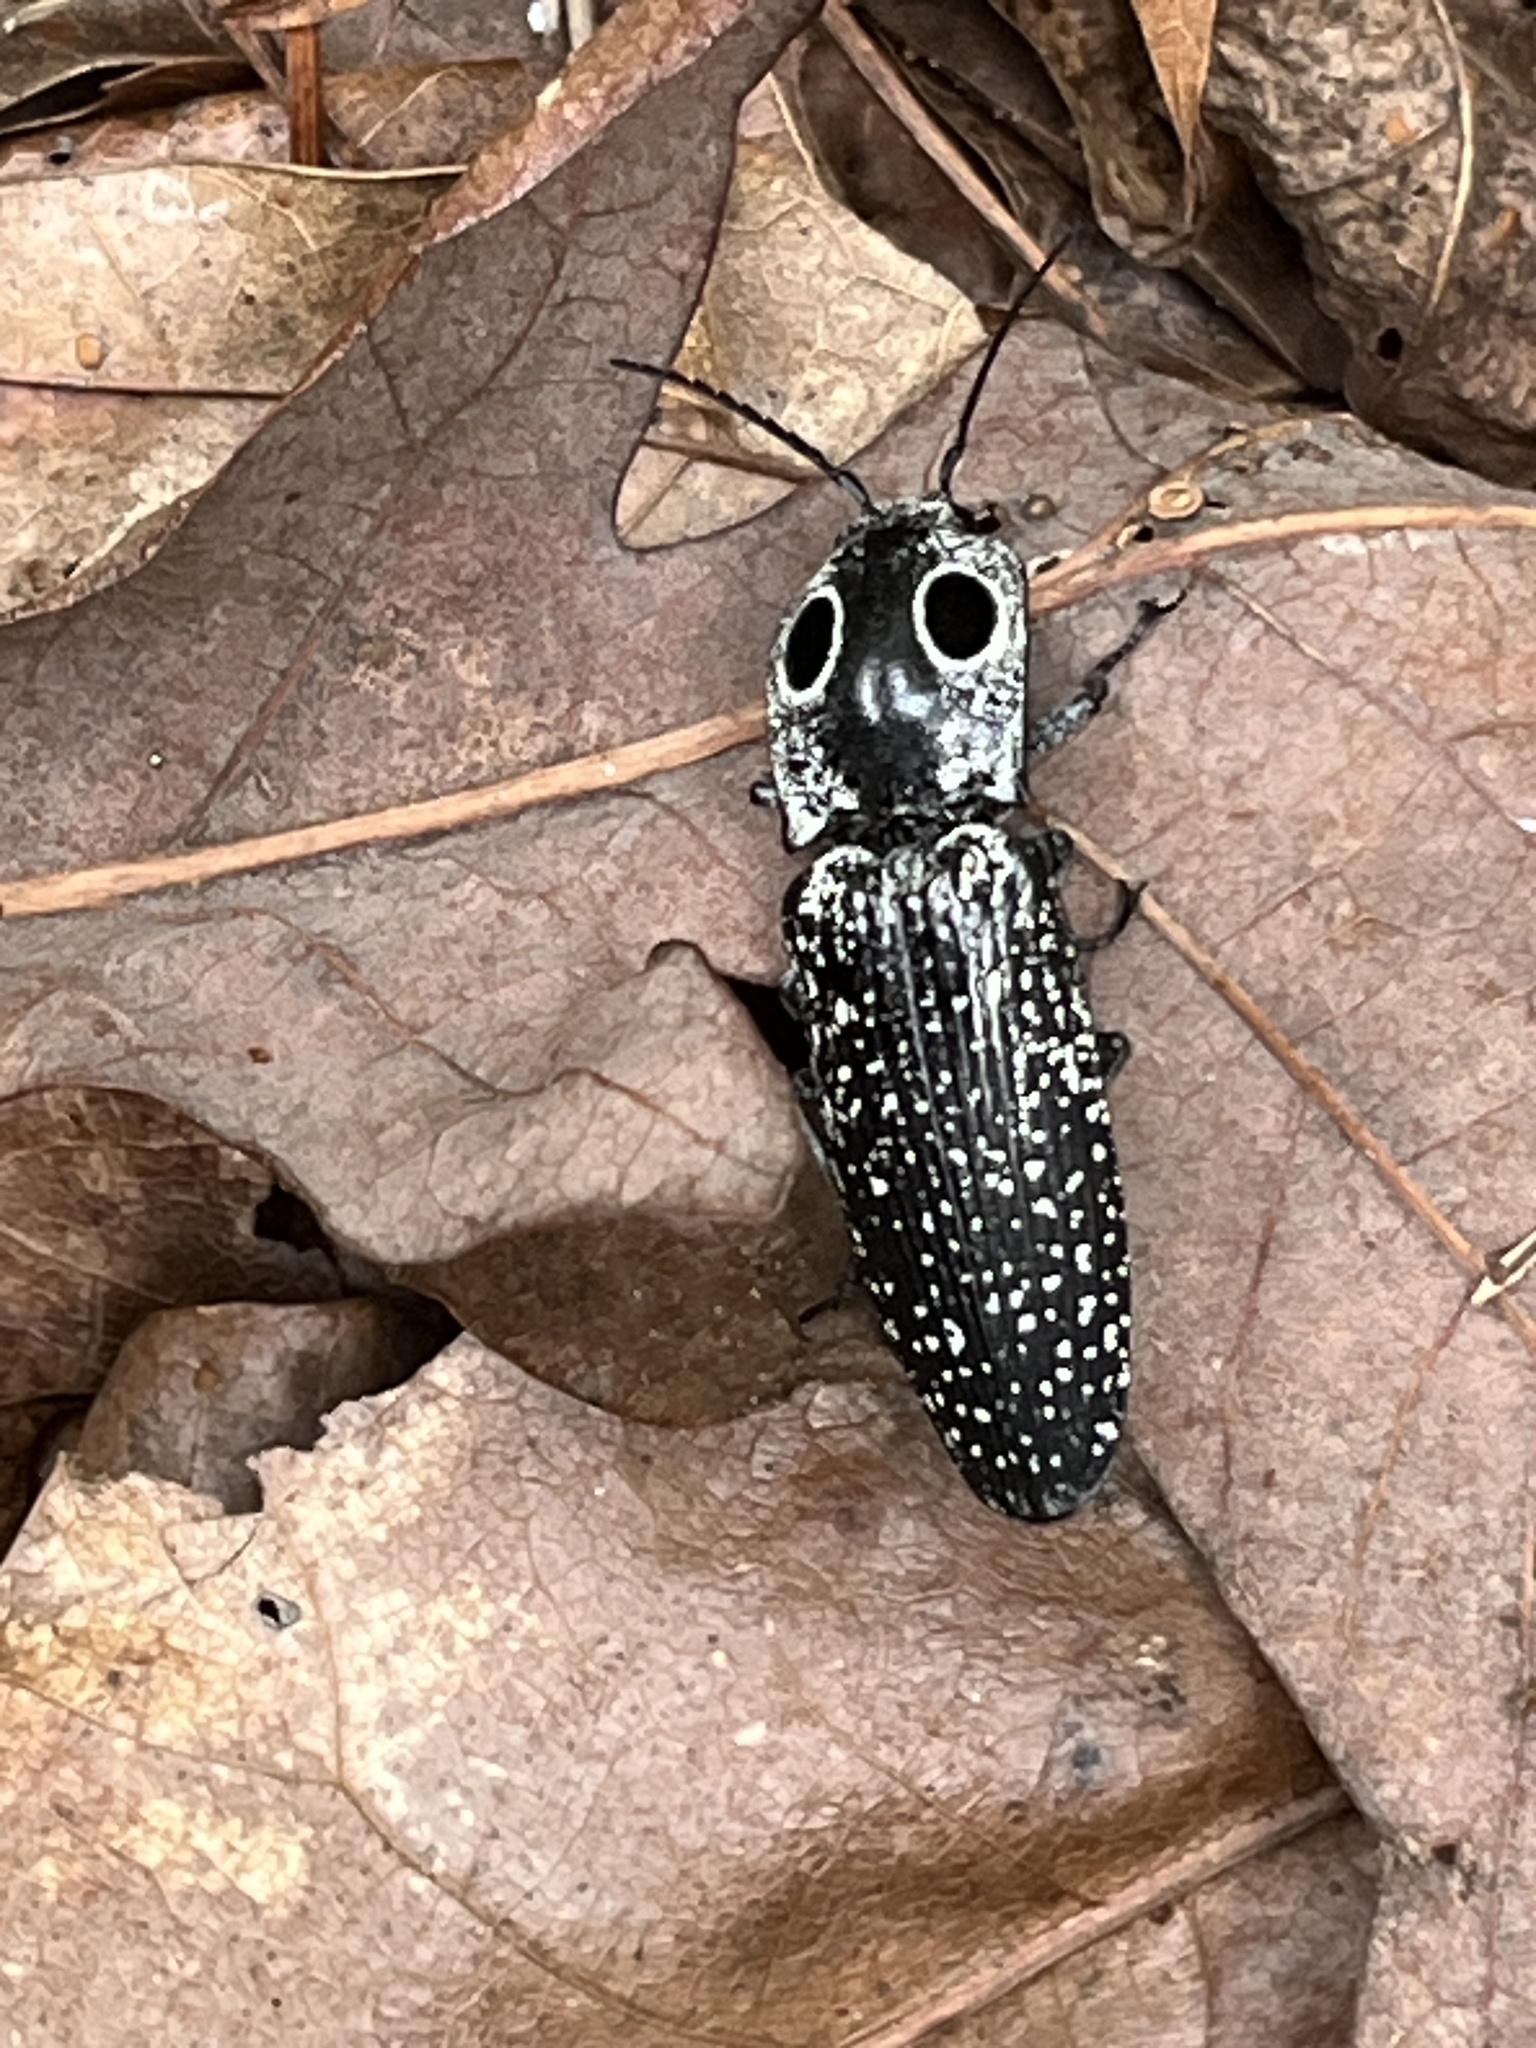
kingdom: Animalia
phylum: Arthropoda
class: Insecta
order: Coleoptera
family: Elateridae
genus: Alaus
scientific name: Alaus oculatus
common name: Eastern eyed click beetle
